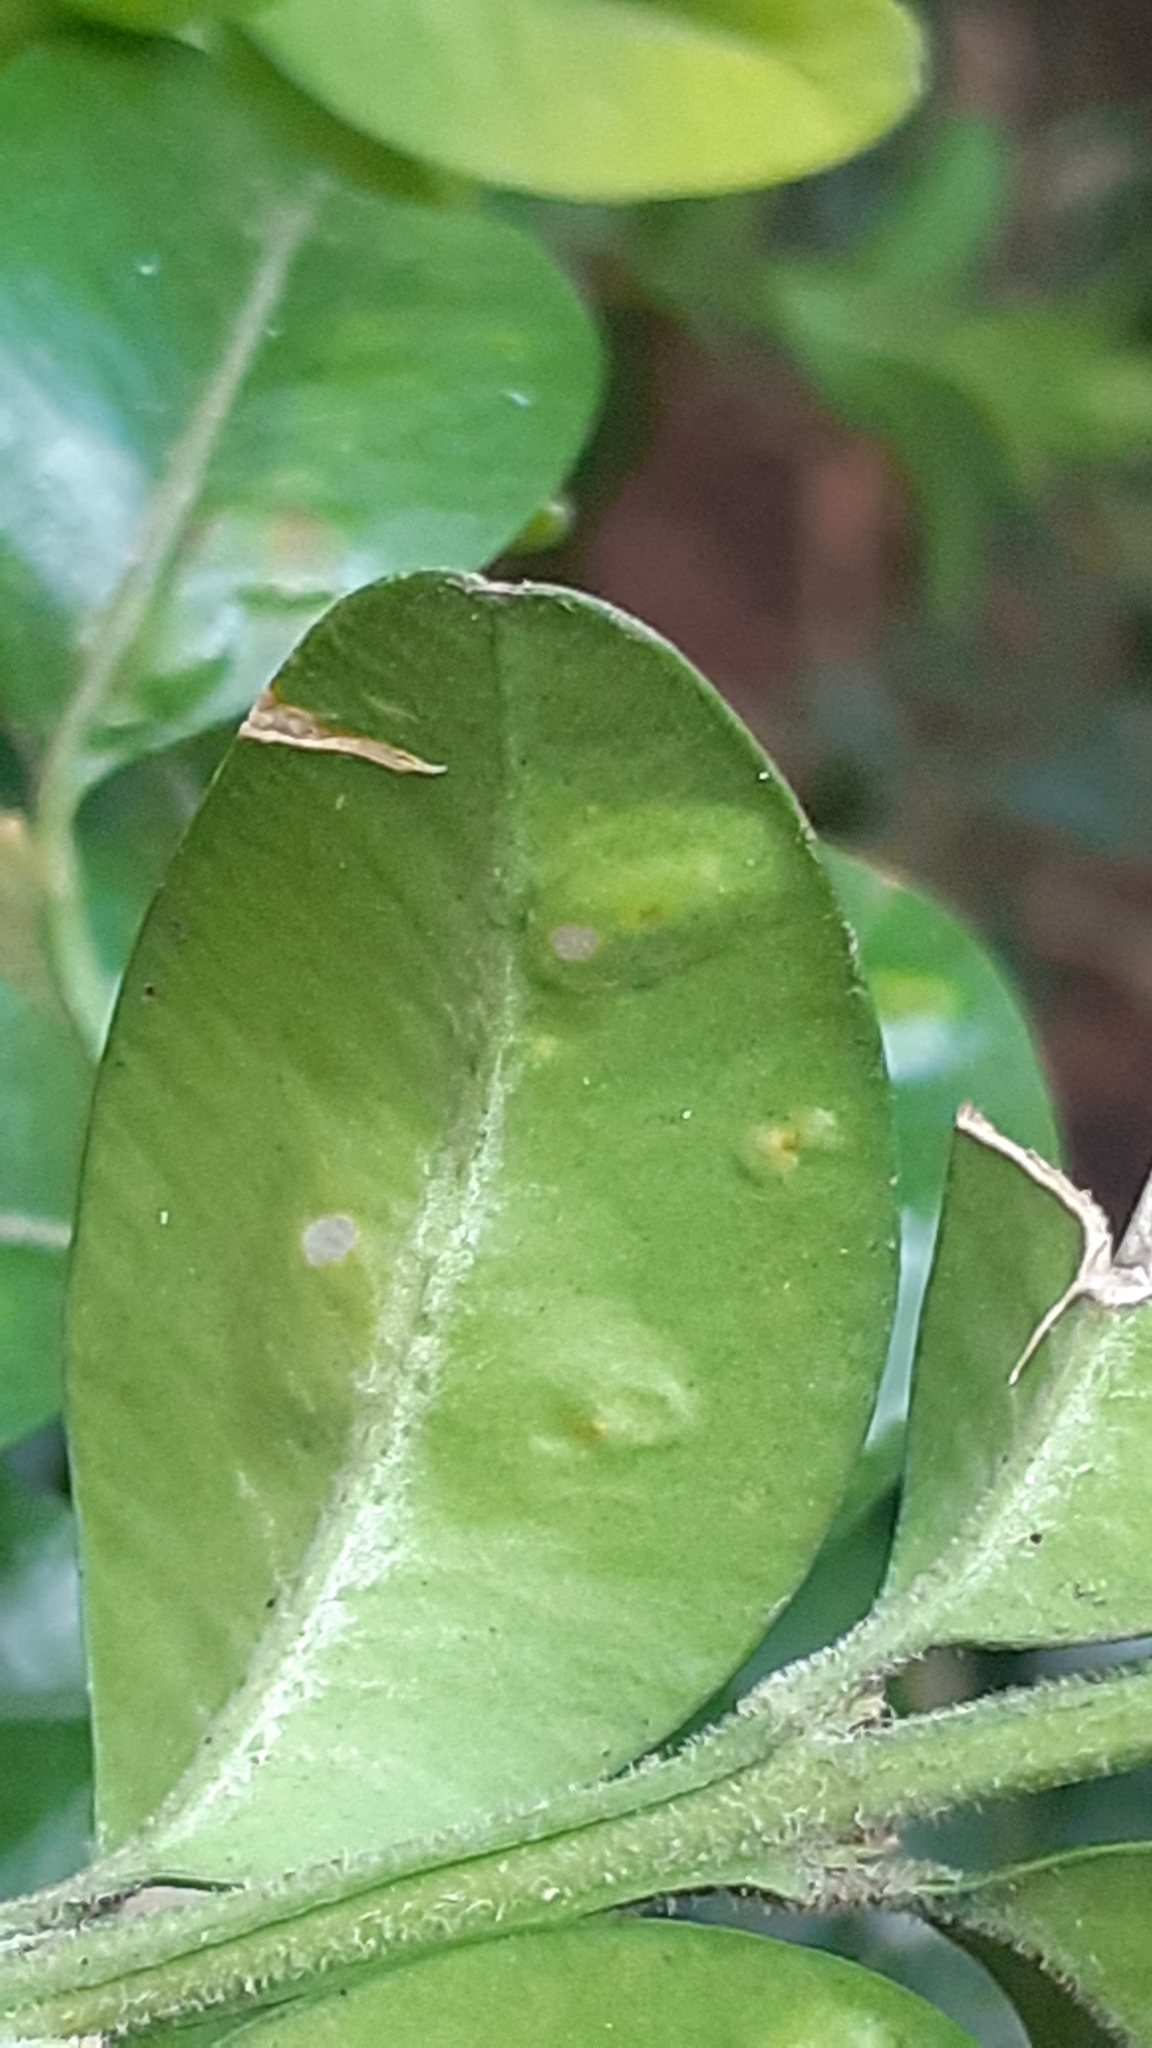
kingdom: Animalia
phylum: Arthropoda
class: Insecta
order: Diptera
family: Cecidomyiidae
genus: Monarthropalpus
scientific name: Monarthropalpus flavus
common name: Boxwood leafminer
